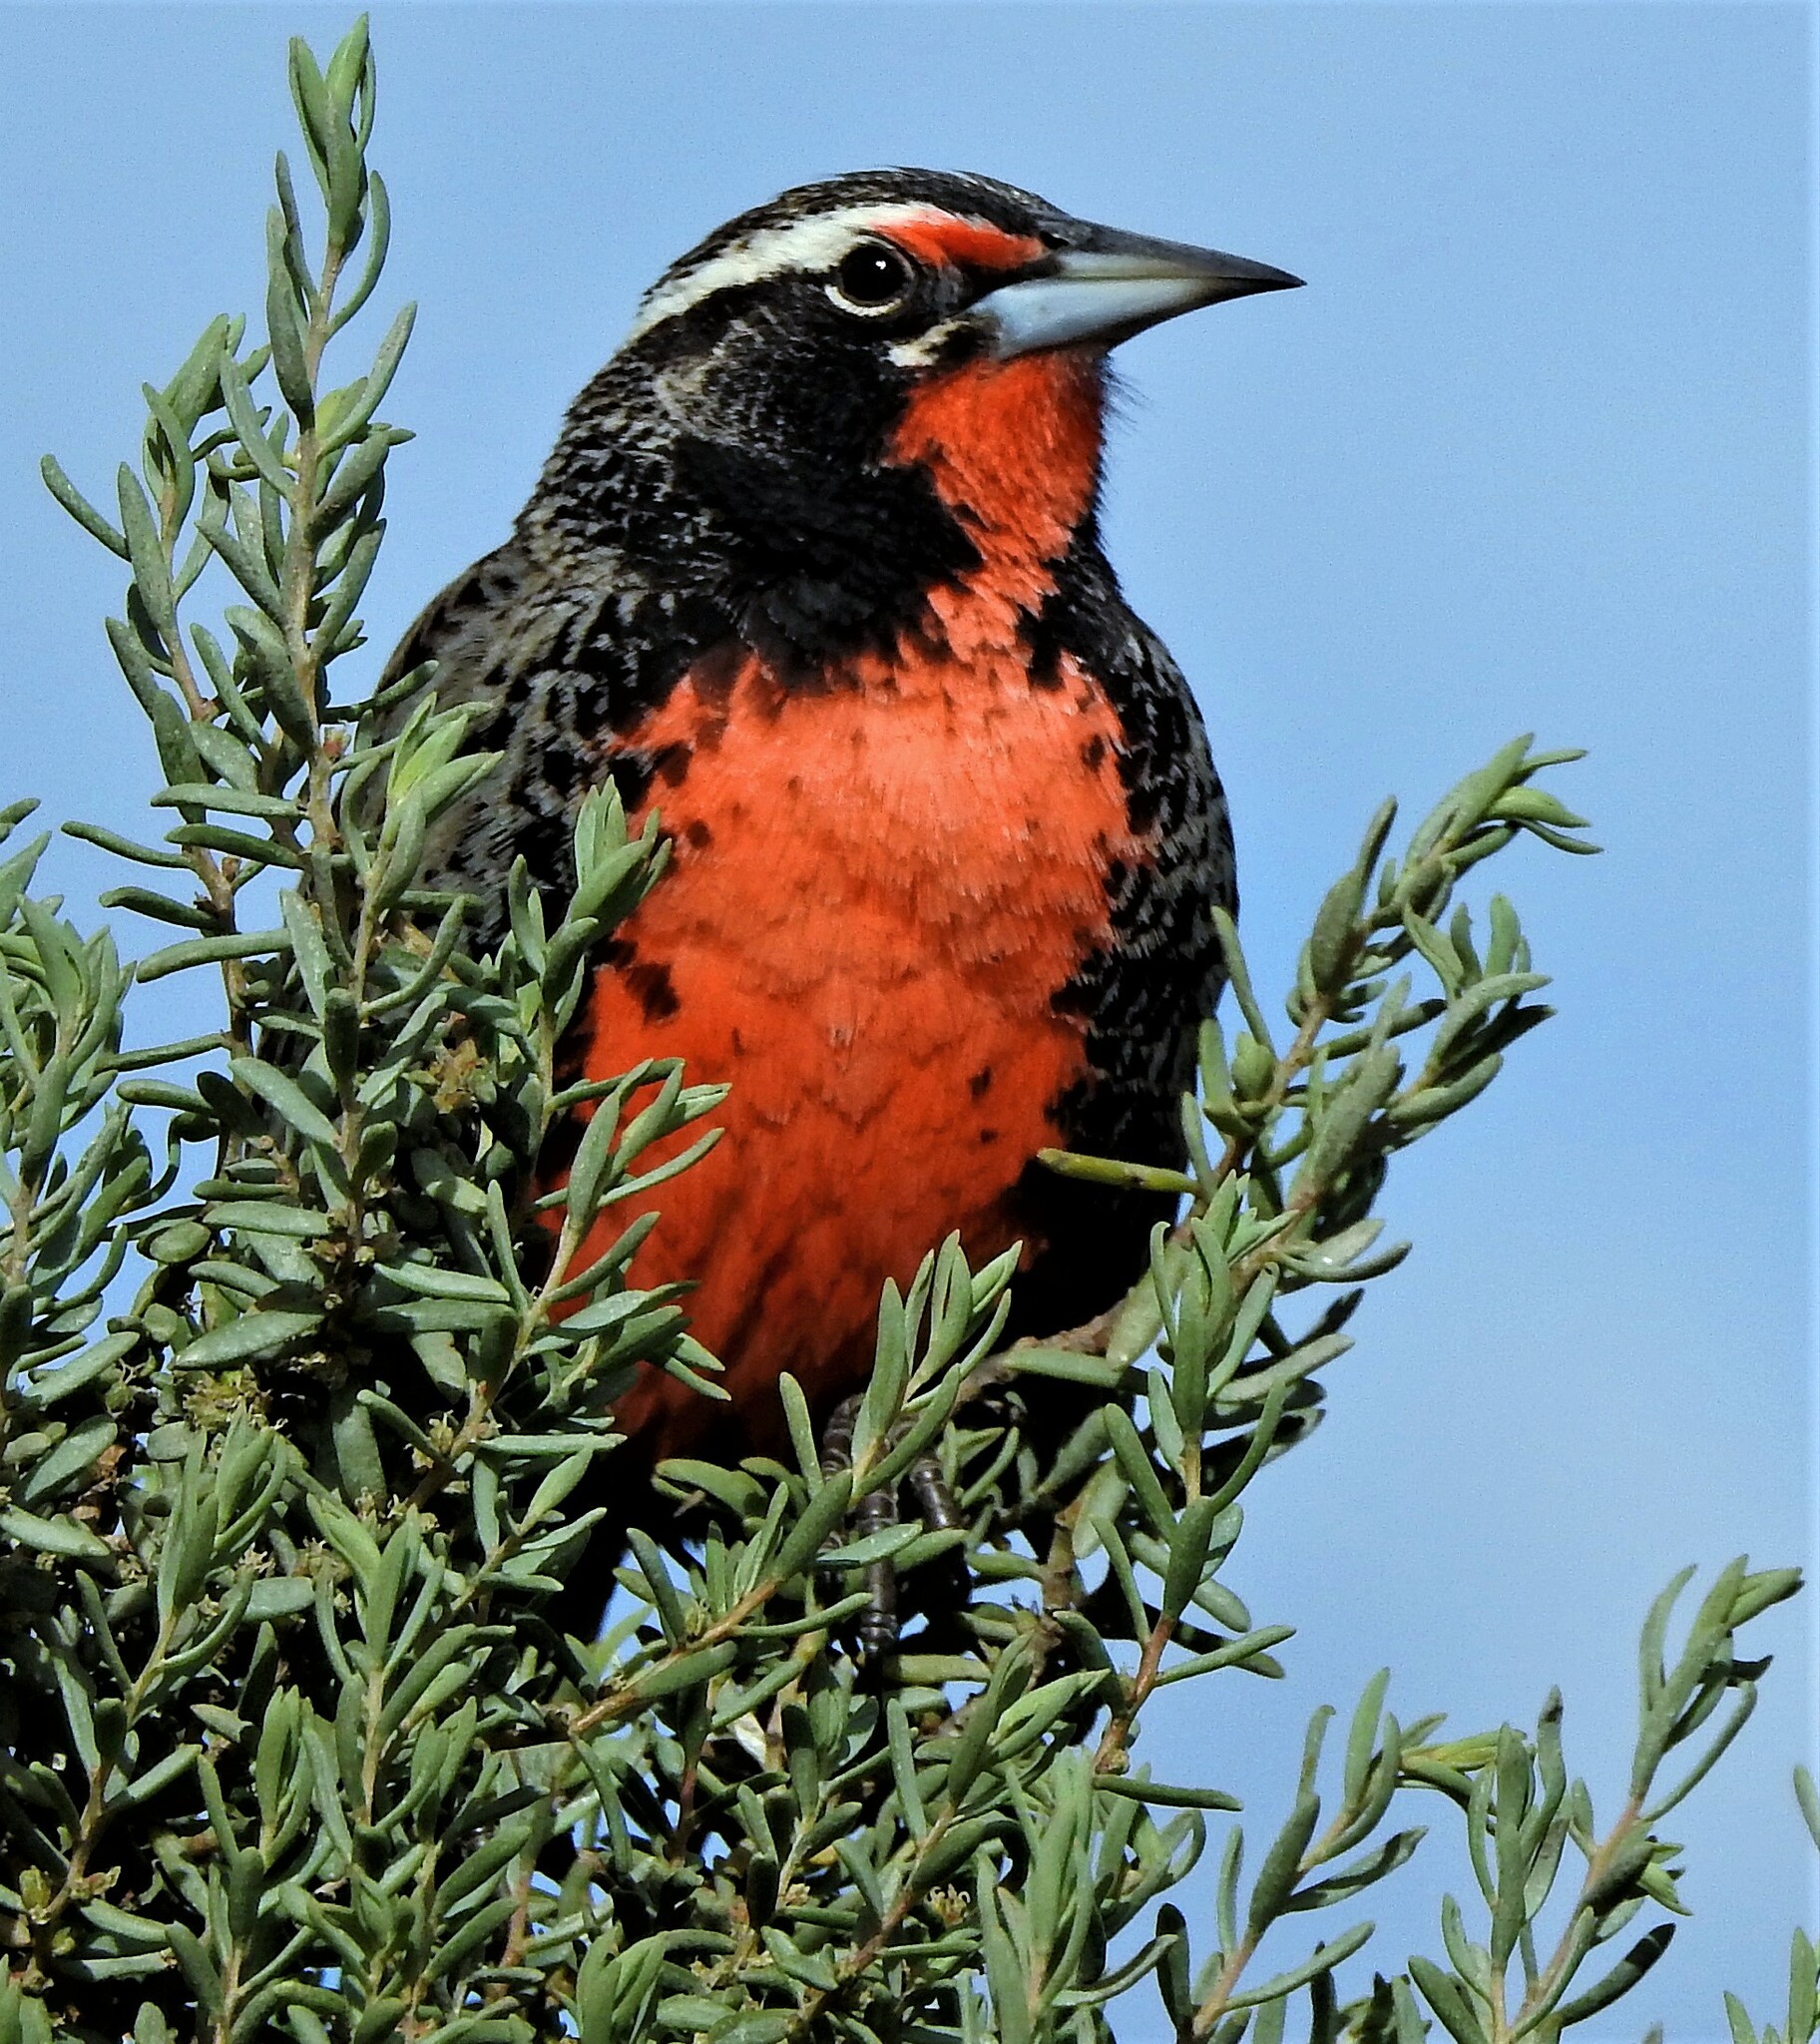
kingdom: Animalia
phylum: Chordata
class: Aves
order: Passeriformes
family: Icteridae
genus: Sturnella
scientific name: Sturnella loyca
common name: Long-tailed meadowlark
